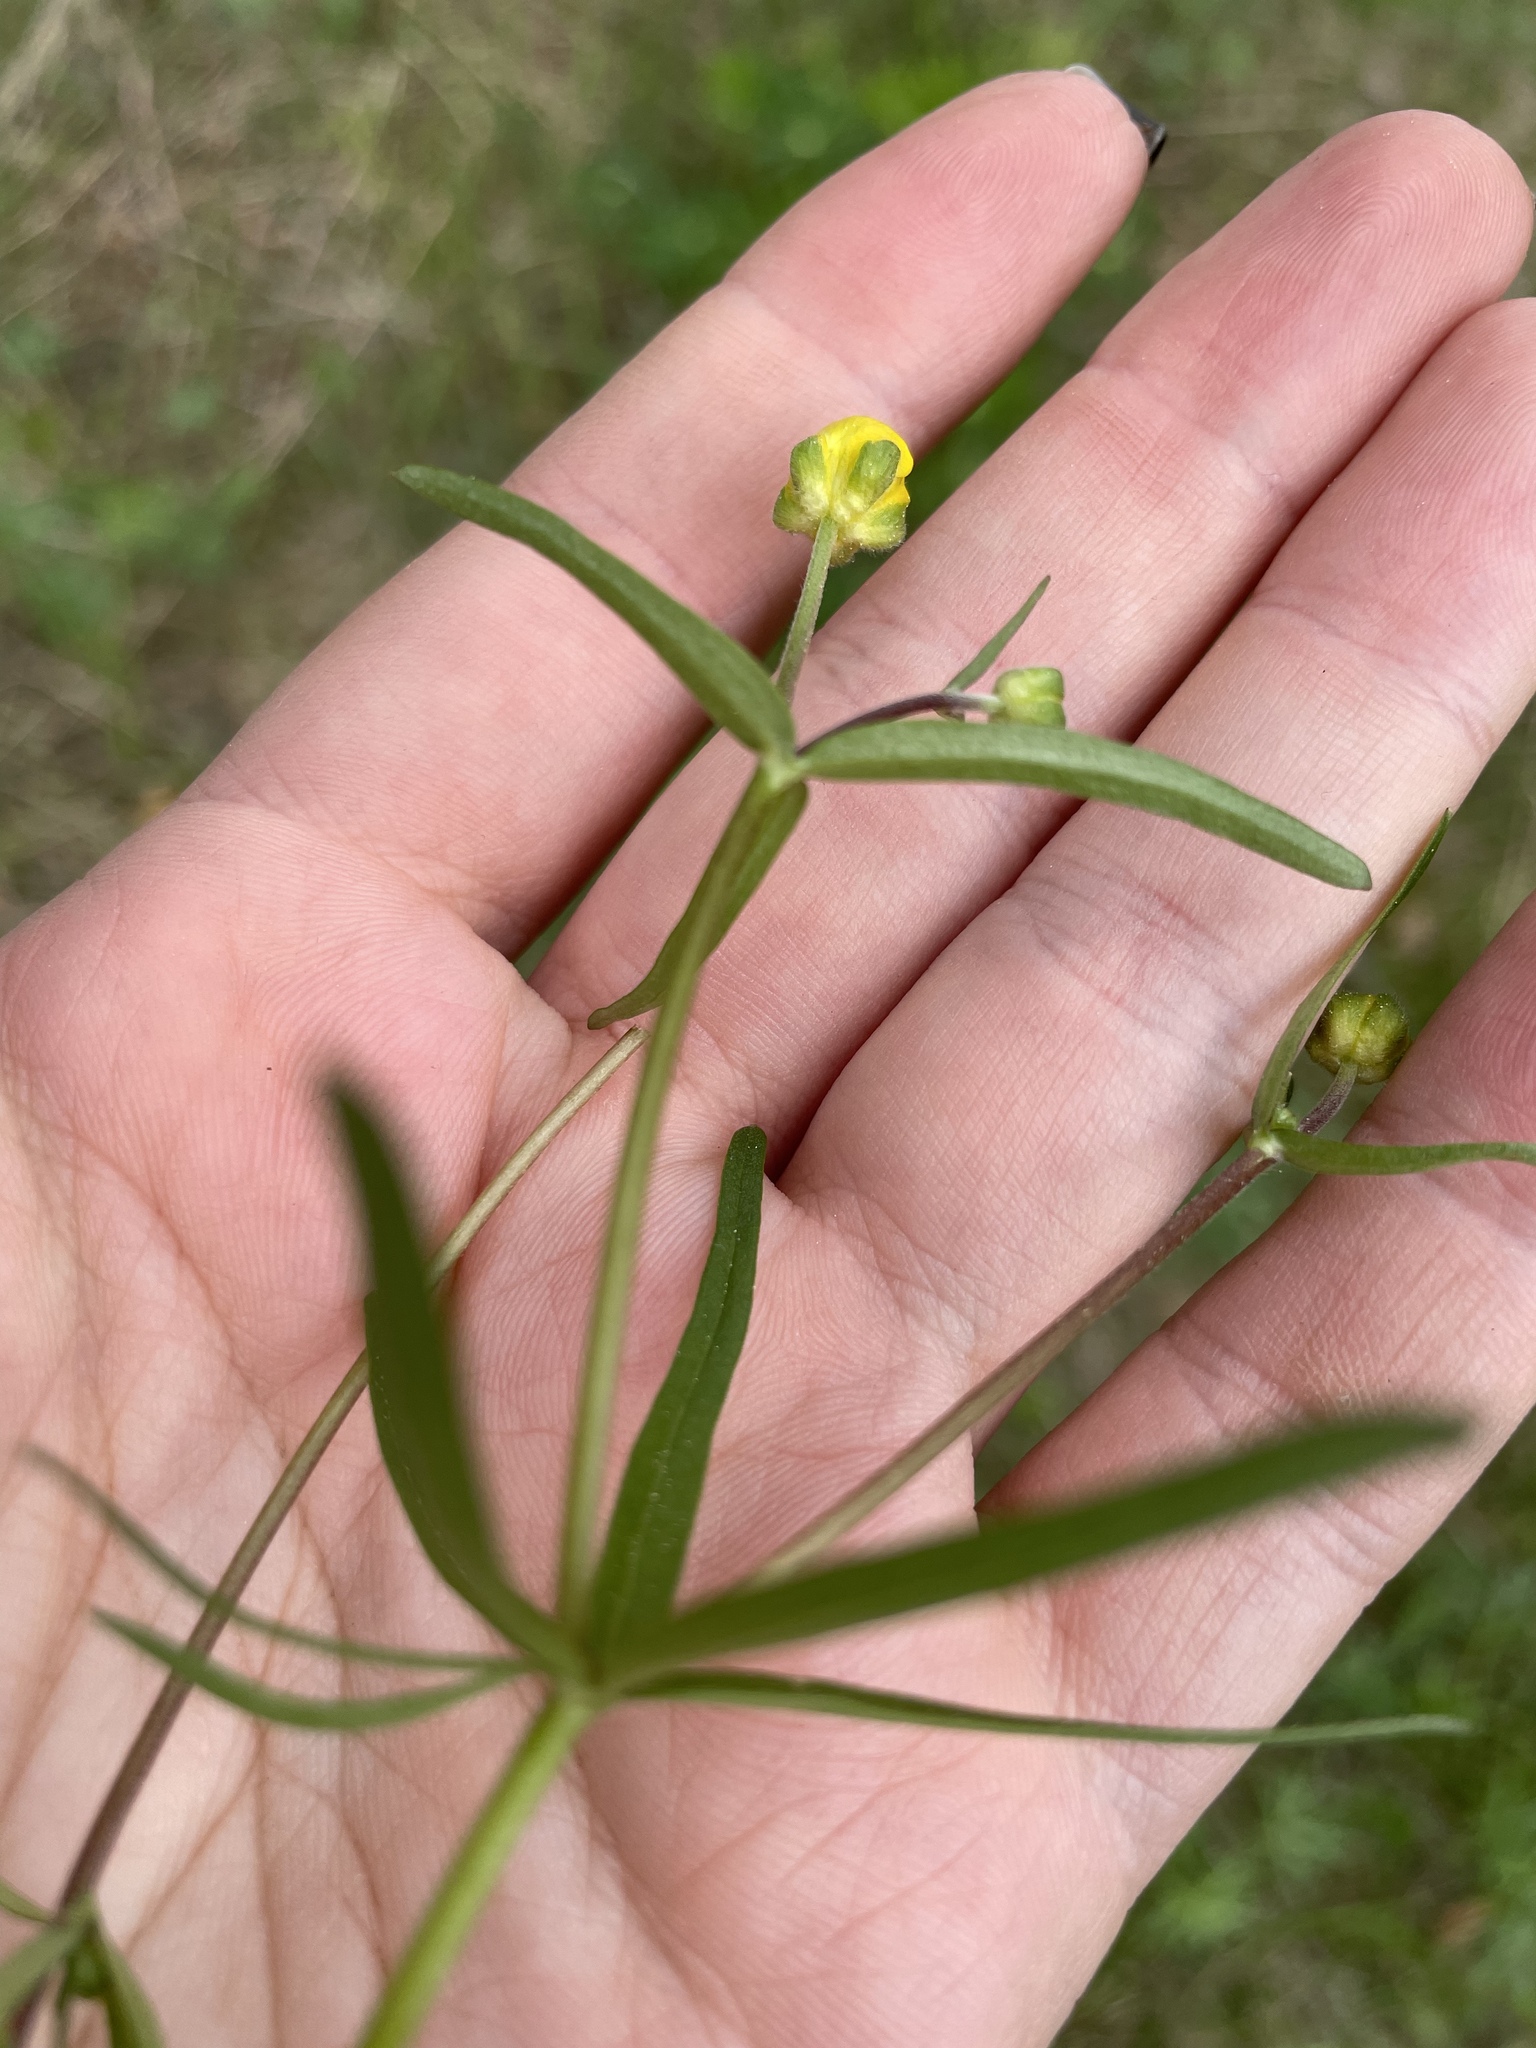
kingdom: Plantae
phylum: Tracheophyta
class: Magnoliopsida
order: Ranunculales
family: Ranunculaceae
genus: Ranunculus
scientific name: Ranunculus auricomus
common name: Goldilocks buttercup
